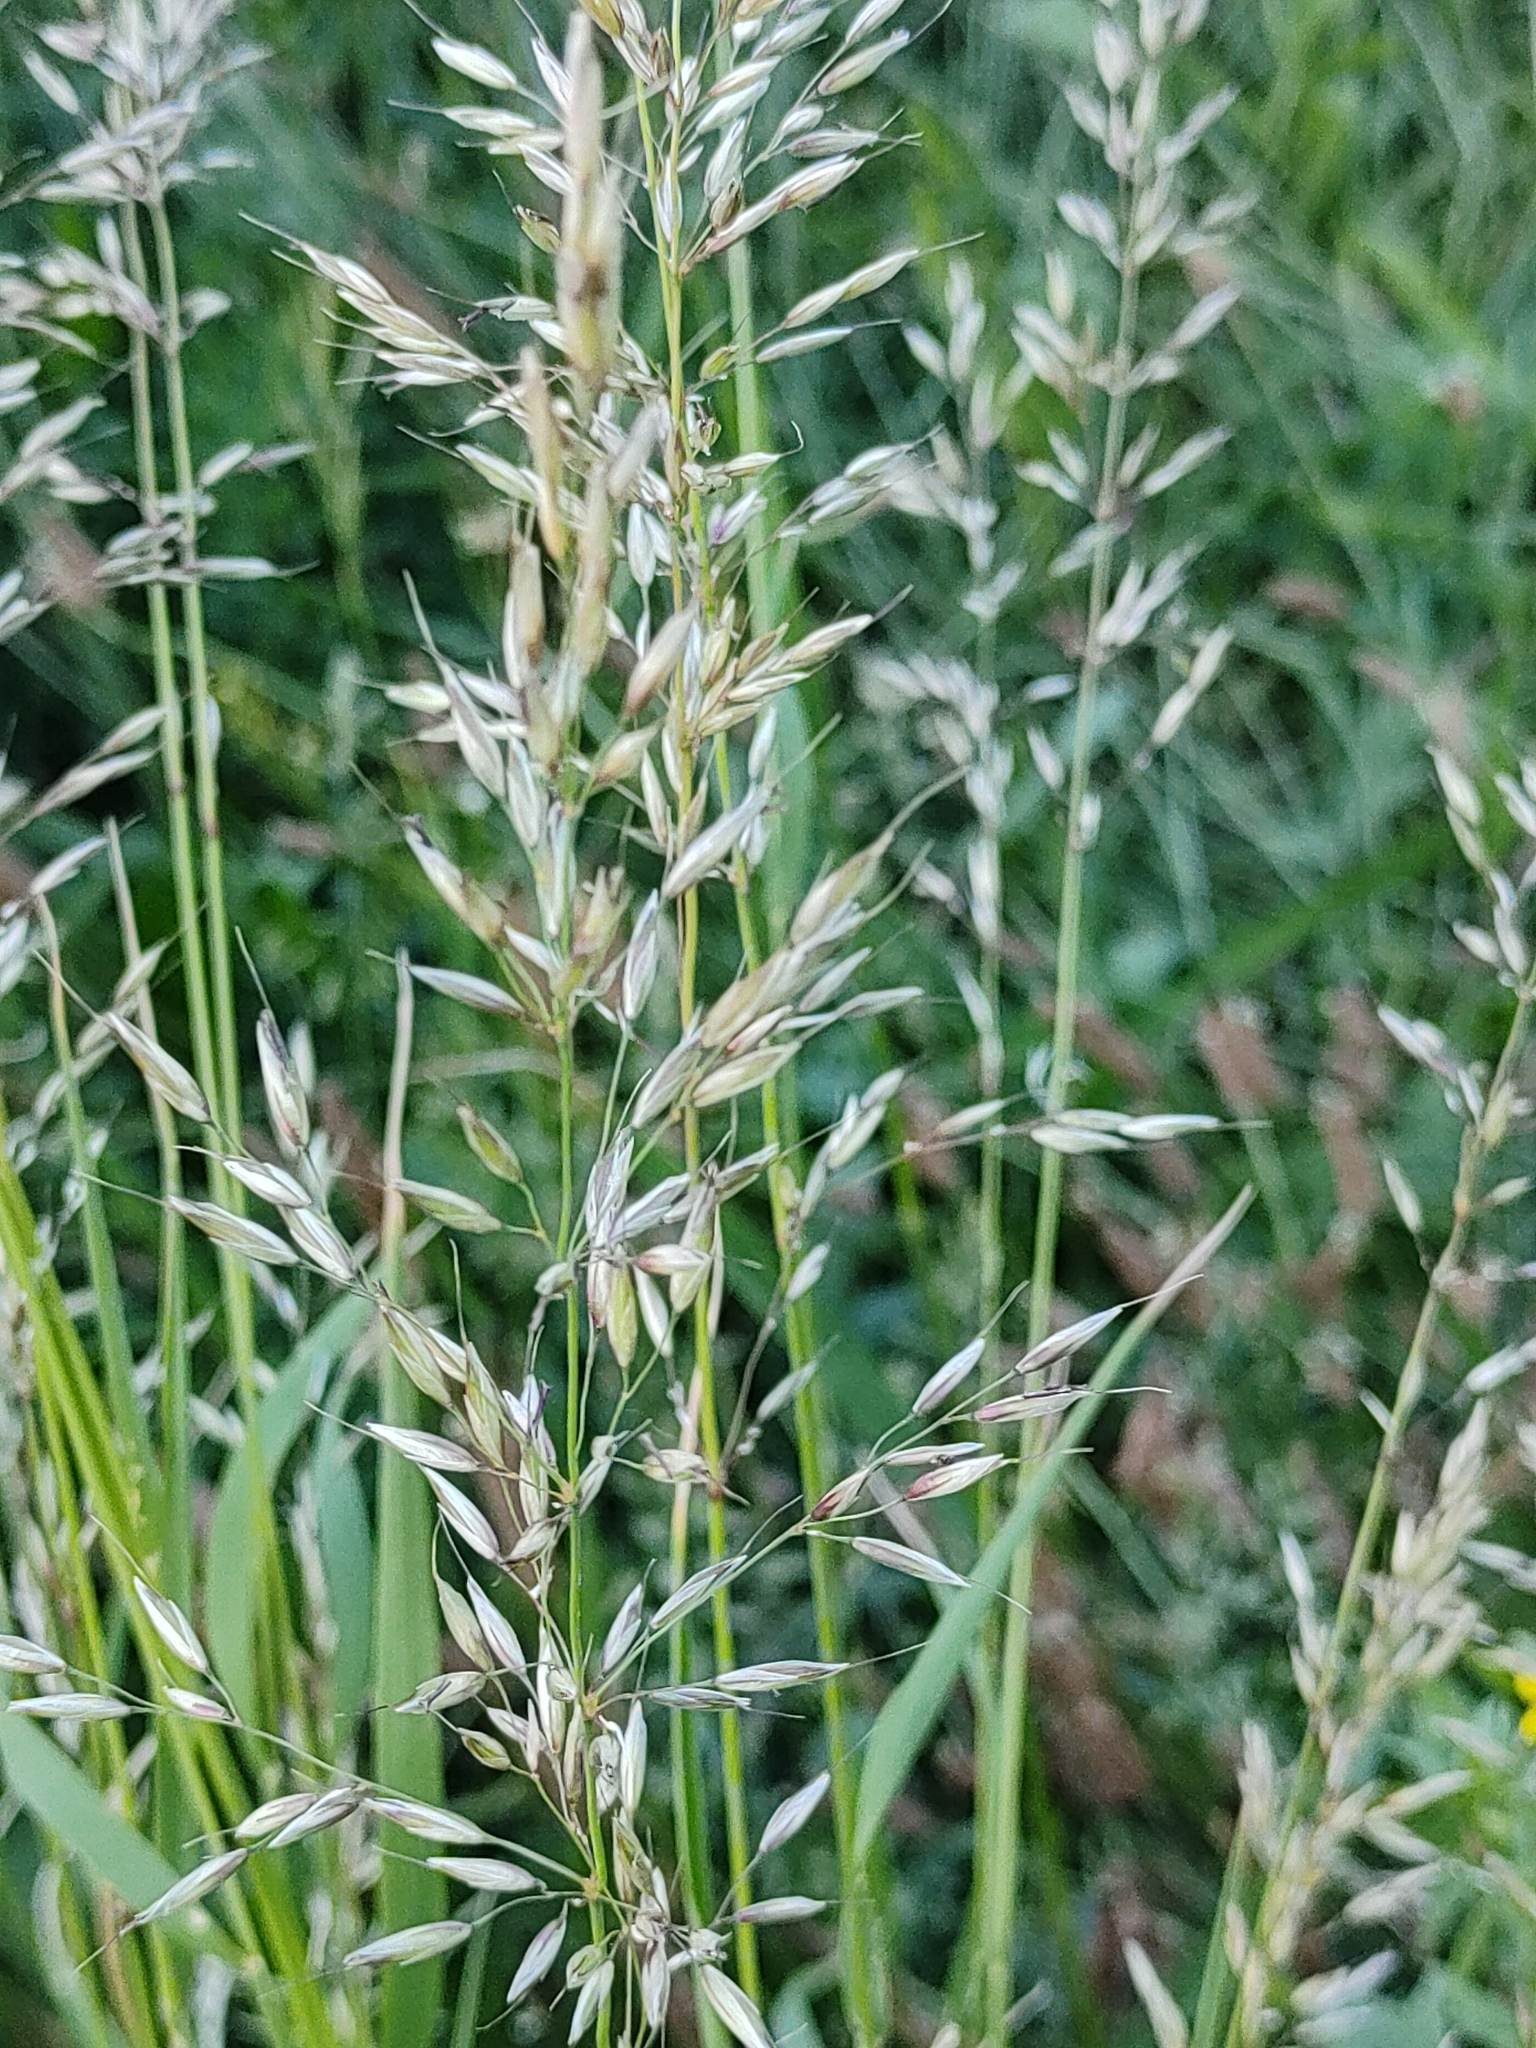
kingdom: Plantae
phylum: Tracheophyta
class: Liliopsida
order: Poales
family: Poaceae
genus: Arrhenatherum
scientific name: Arrhenatherum elatius
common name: Tall oatgrass
